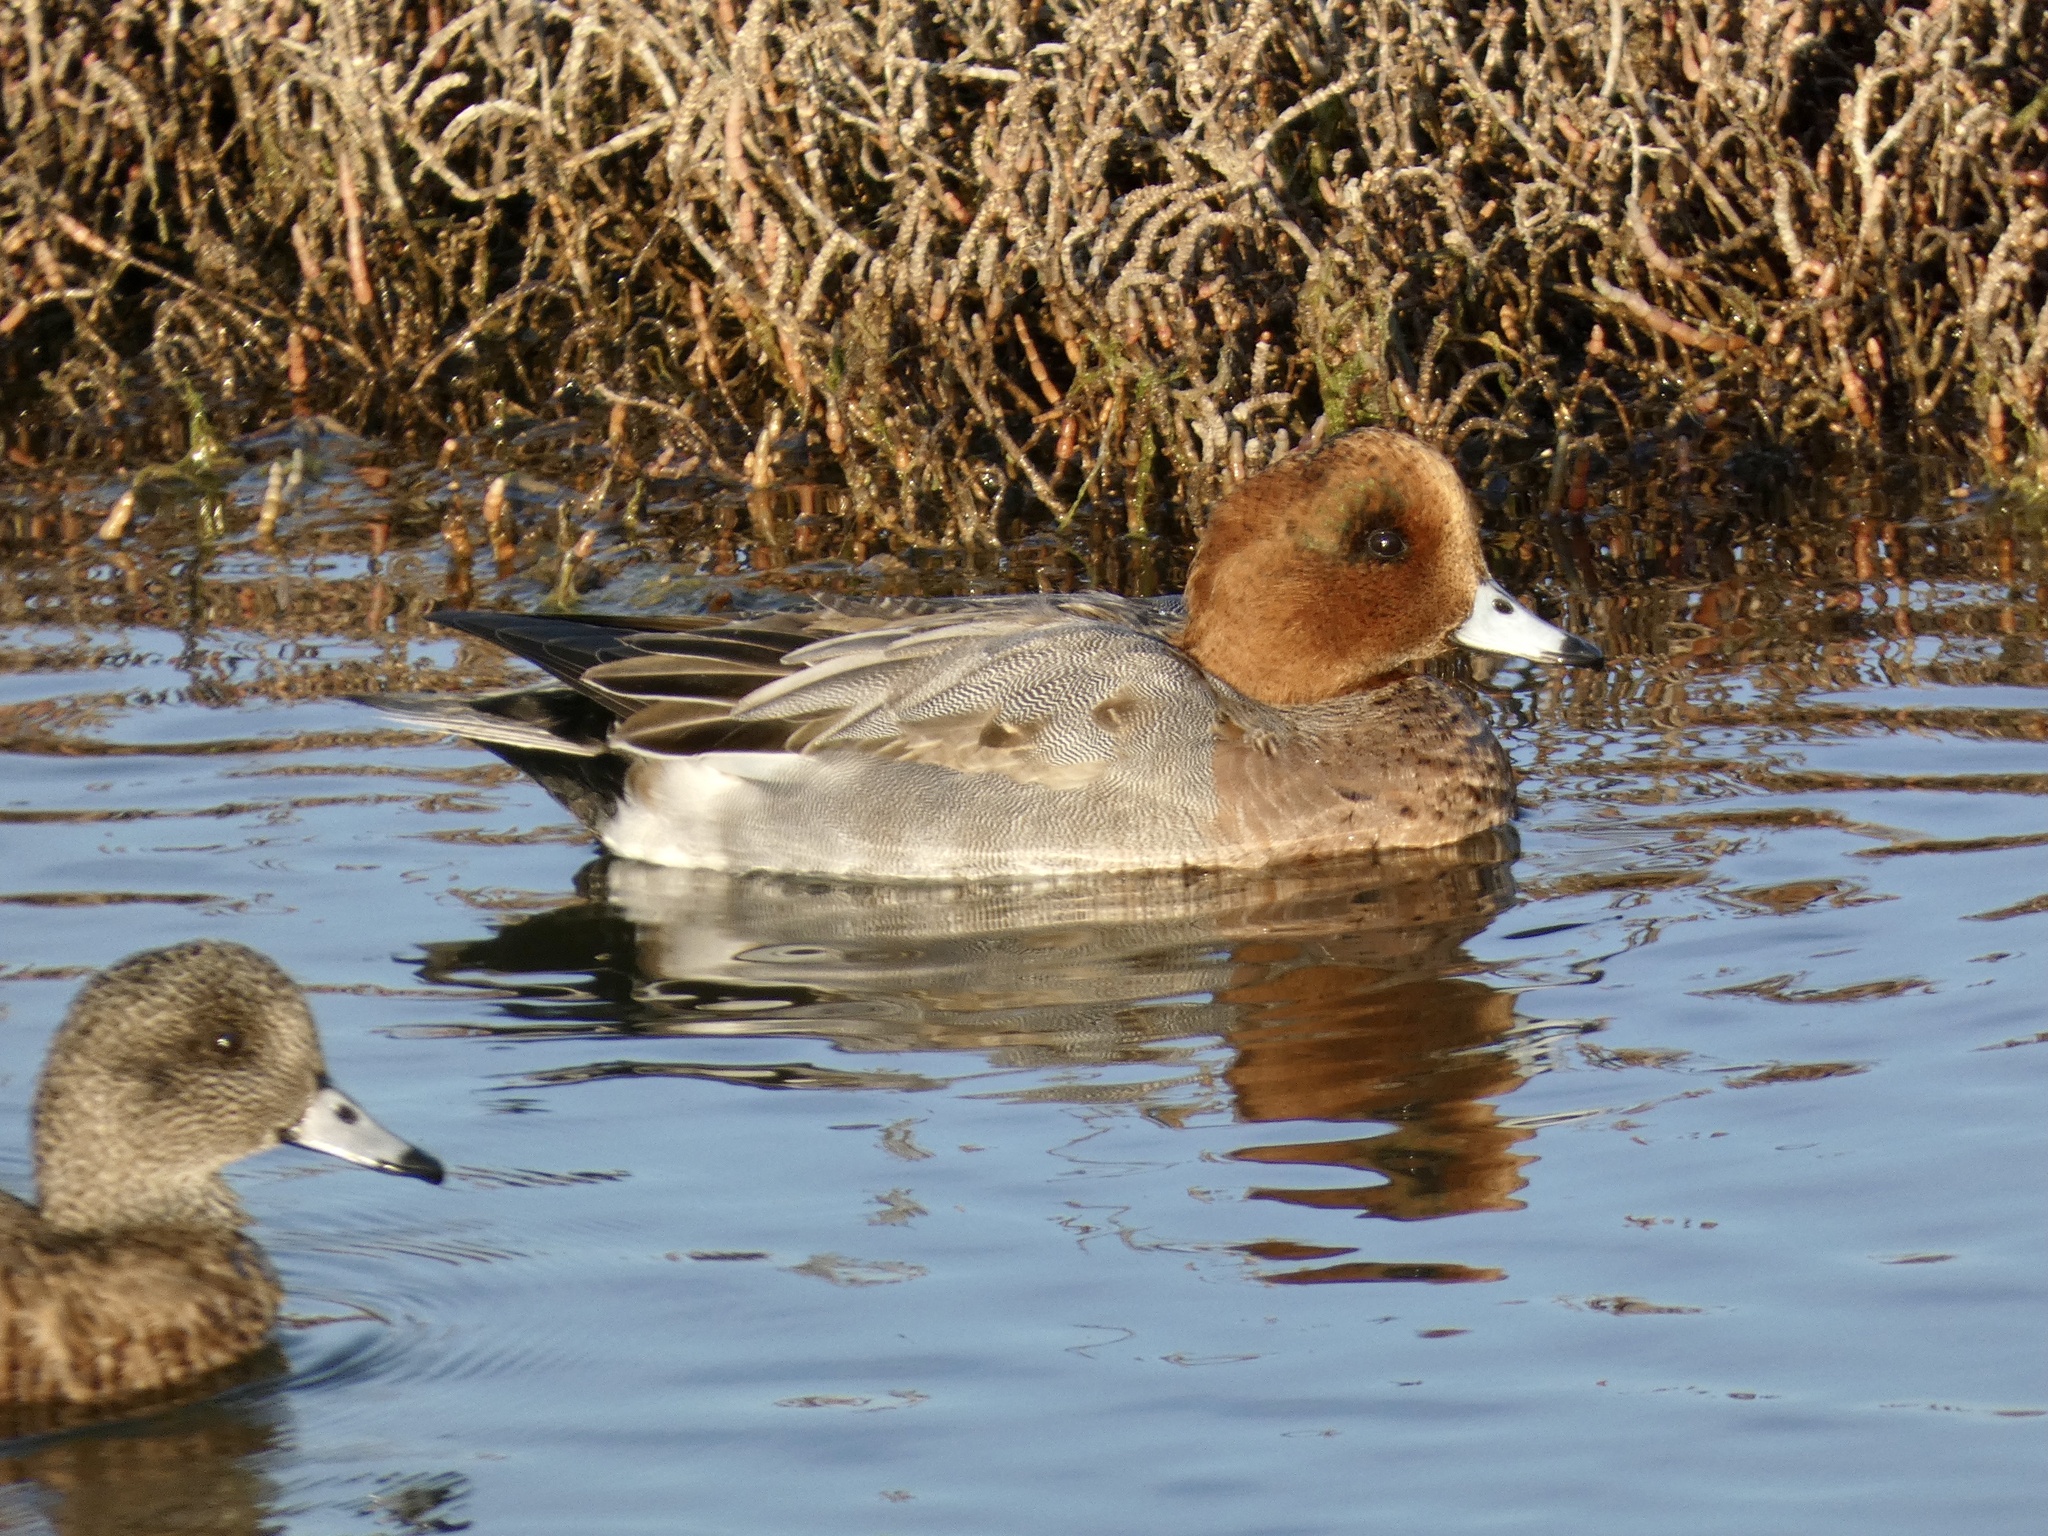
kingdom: Animalia
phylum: Chordata
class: Aves
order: Anseriformes
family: Anatidae
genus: Mareca
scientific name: Mareca penelope
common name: Eurasian wigeon
